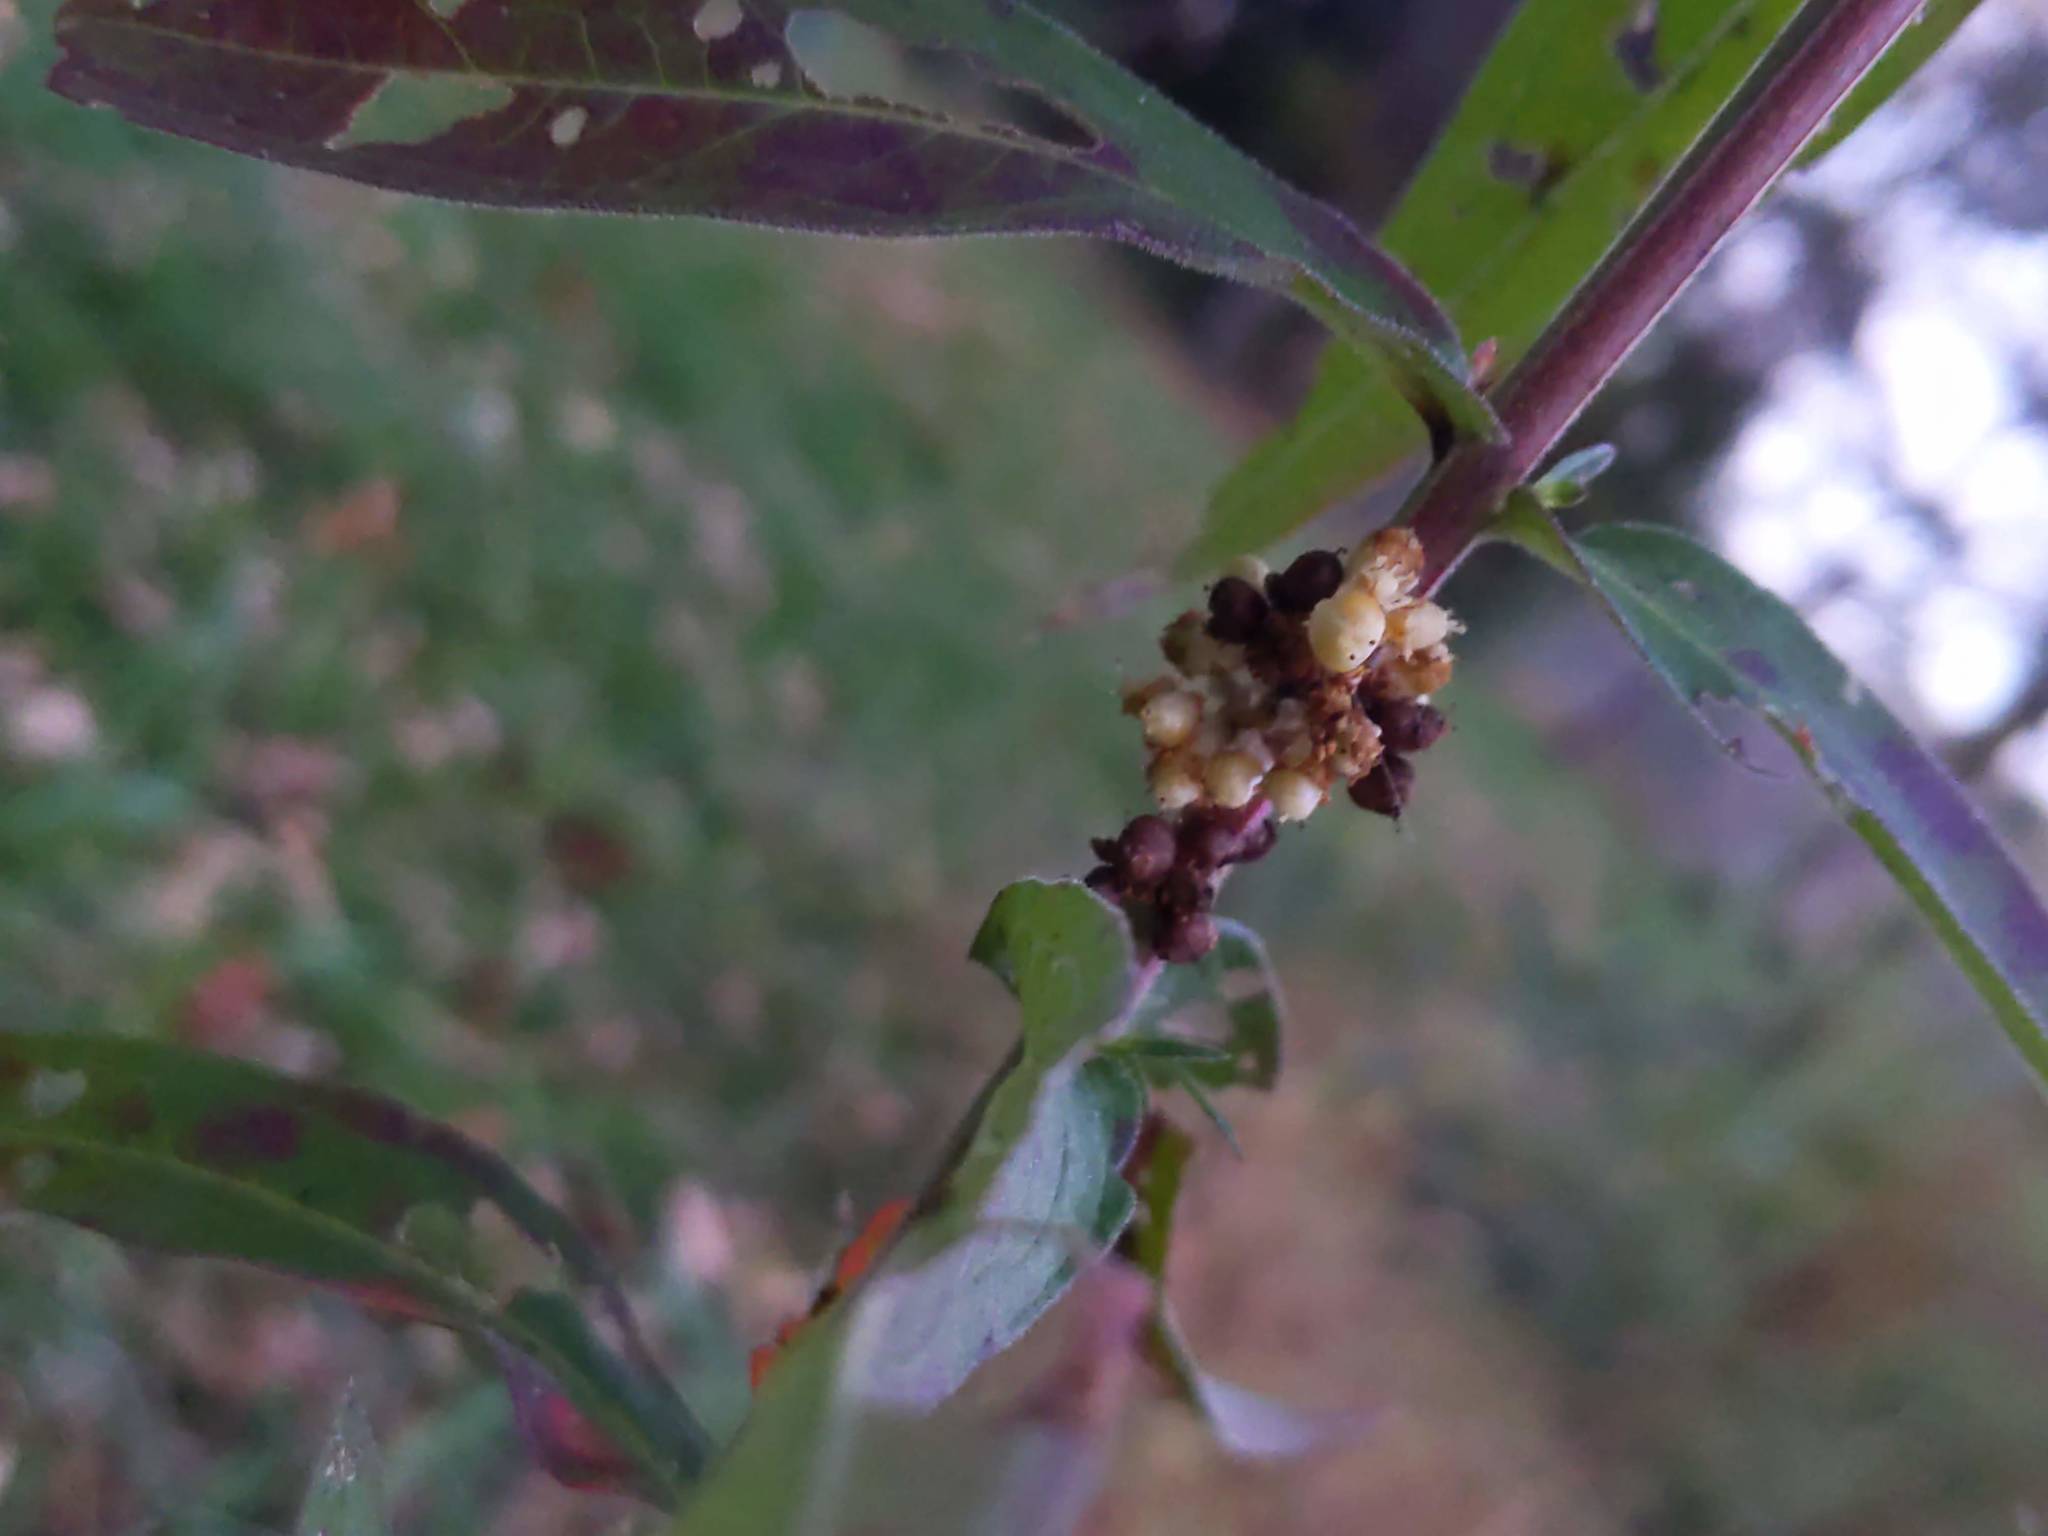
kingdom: Plantae
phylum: Tracheophyta
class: Magnoliopsida
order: Myrtales
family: Lythraceae
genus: Lythrum
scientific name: Lythrum salicaria
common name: Purple loosestrife
